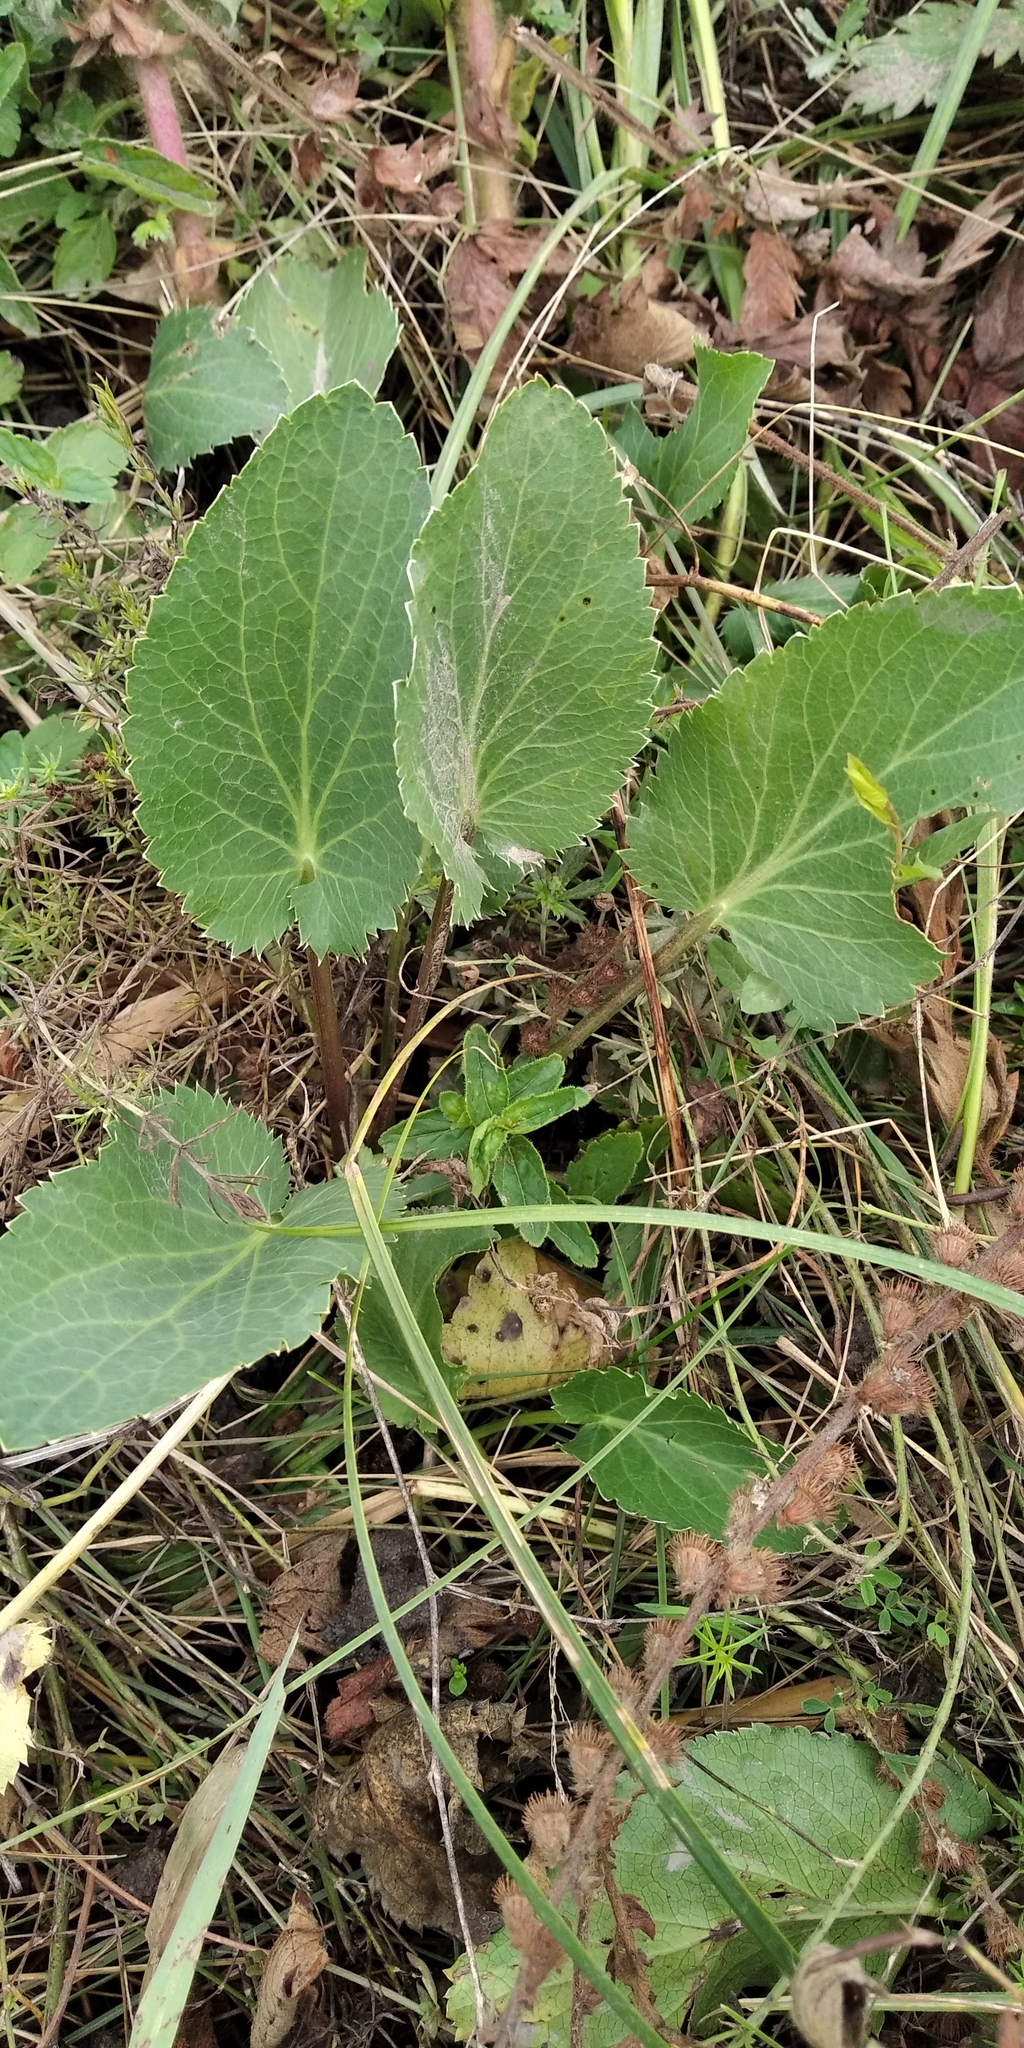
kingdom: Plantae
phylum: Tracheophyta
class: Magnoliopsida
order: Apiales
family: Apiaceae
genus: Eryngium
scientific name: Eryngium planum
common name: Blue eryngo
